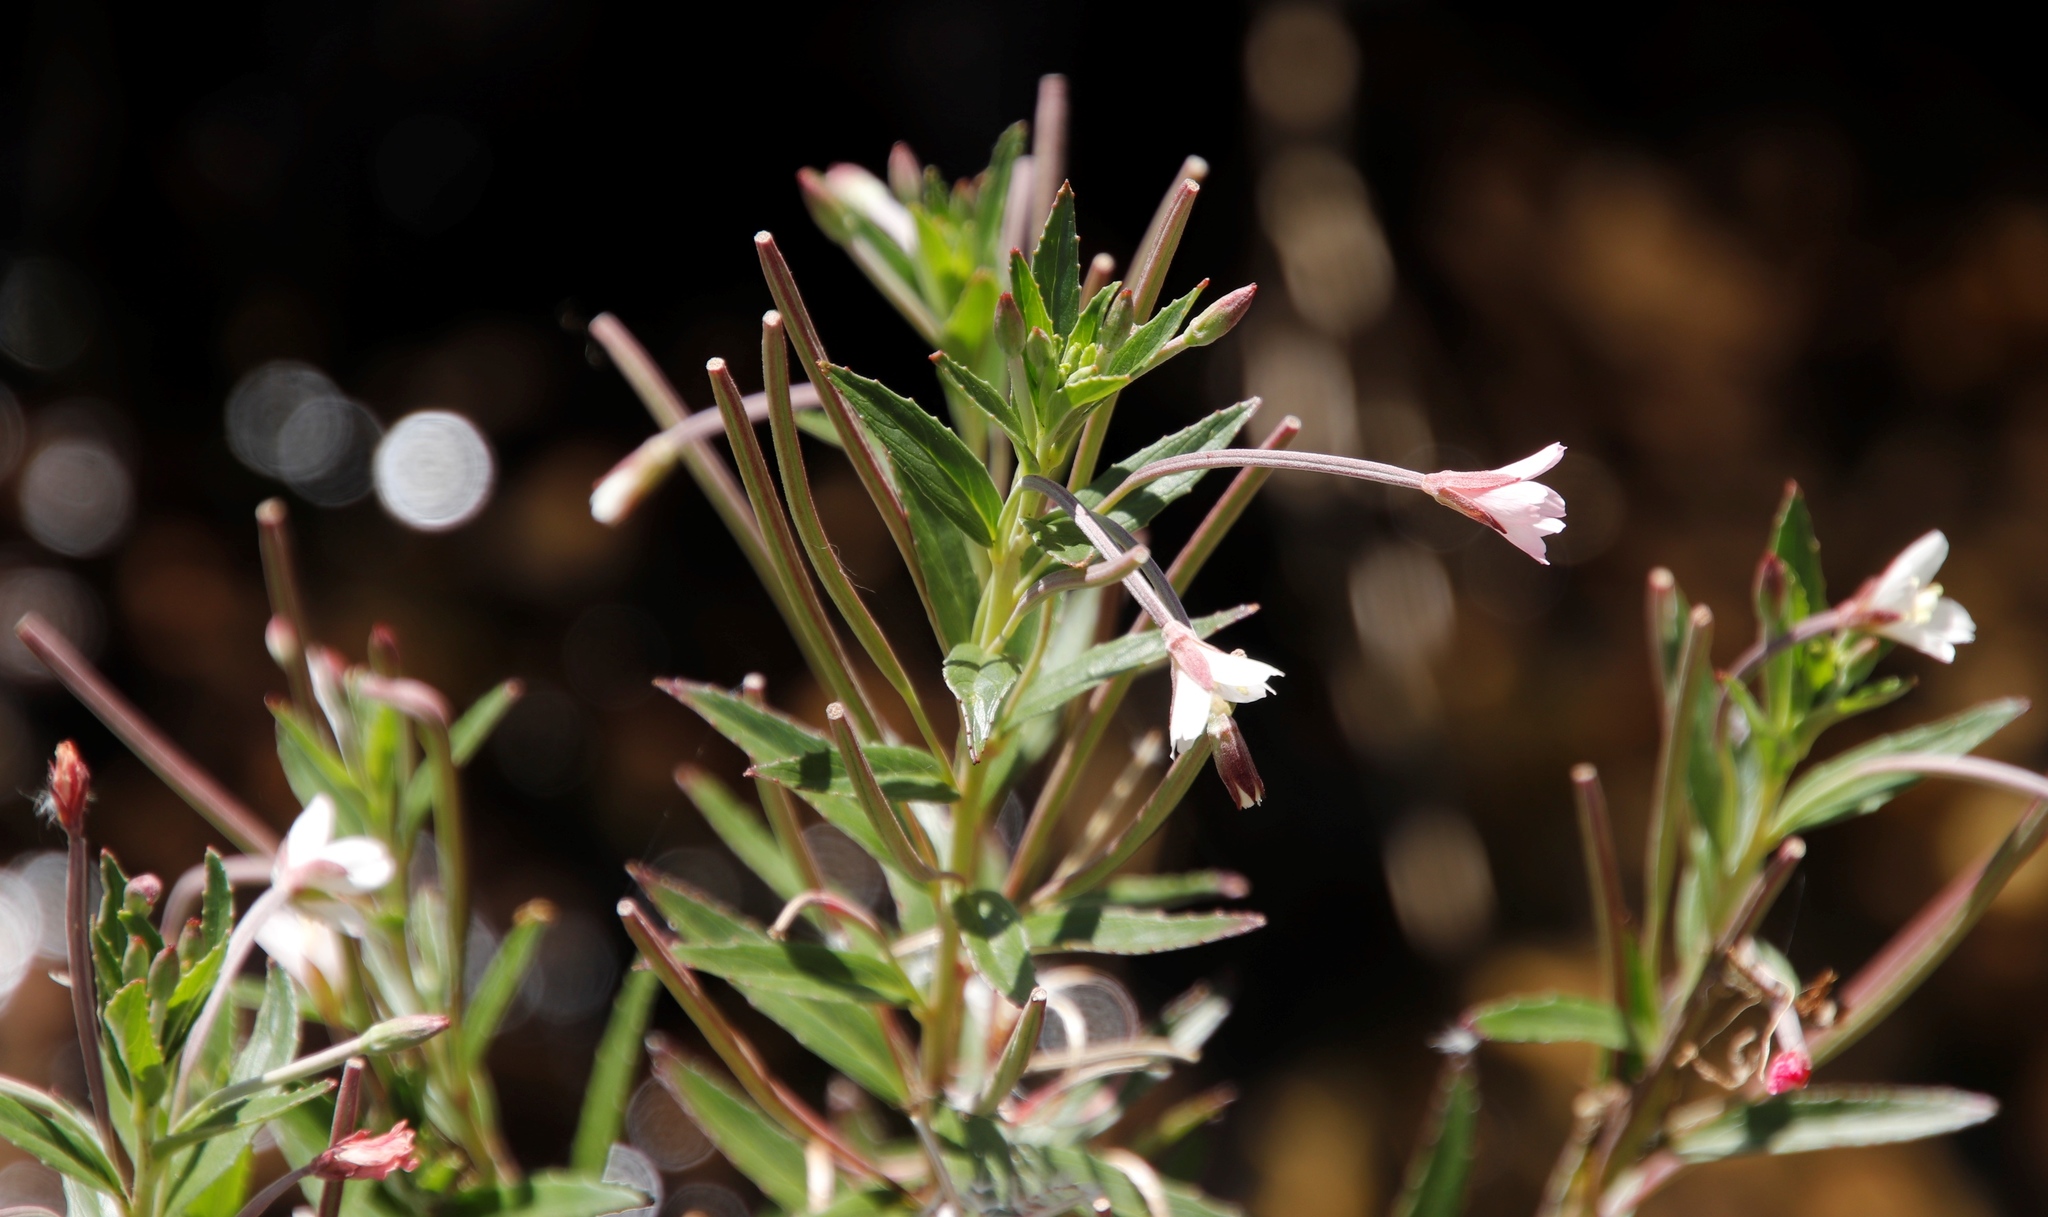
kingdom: Plantae
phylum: Tracheophyta
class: Magnoliopsida
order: Myrtales
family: Onagraceae
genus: Epilobium
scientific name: Epilobium capense
